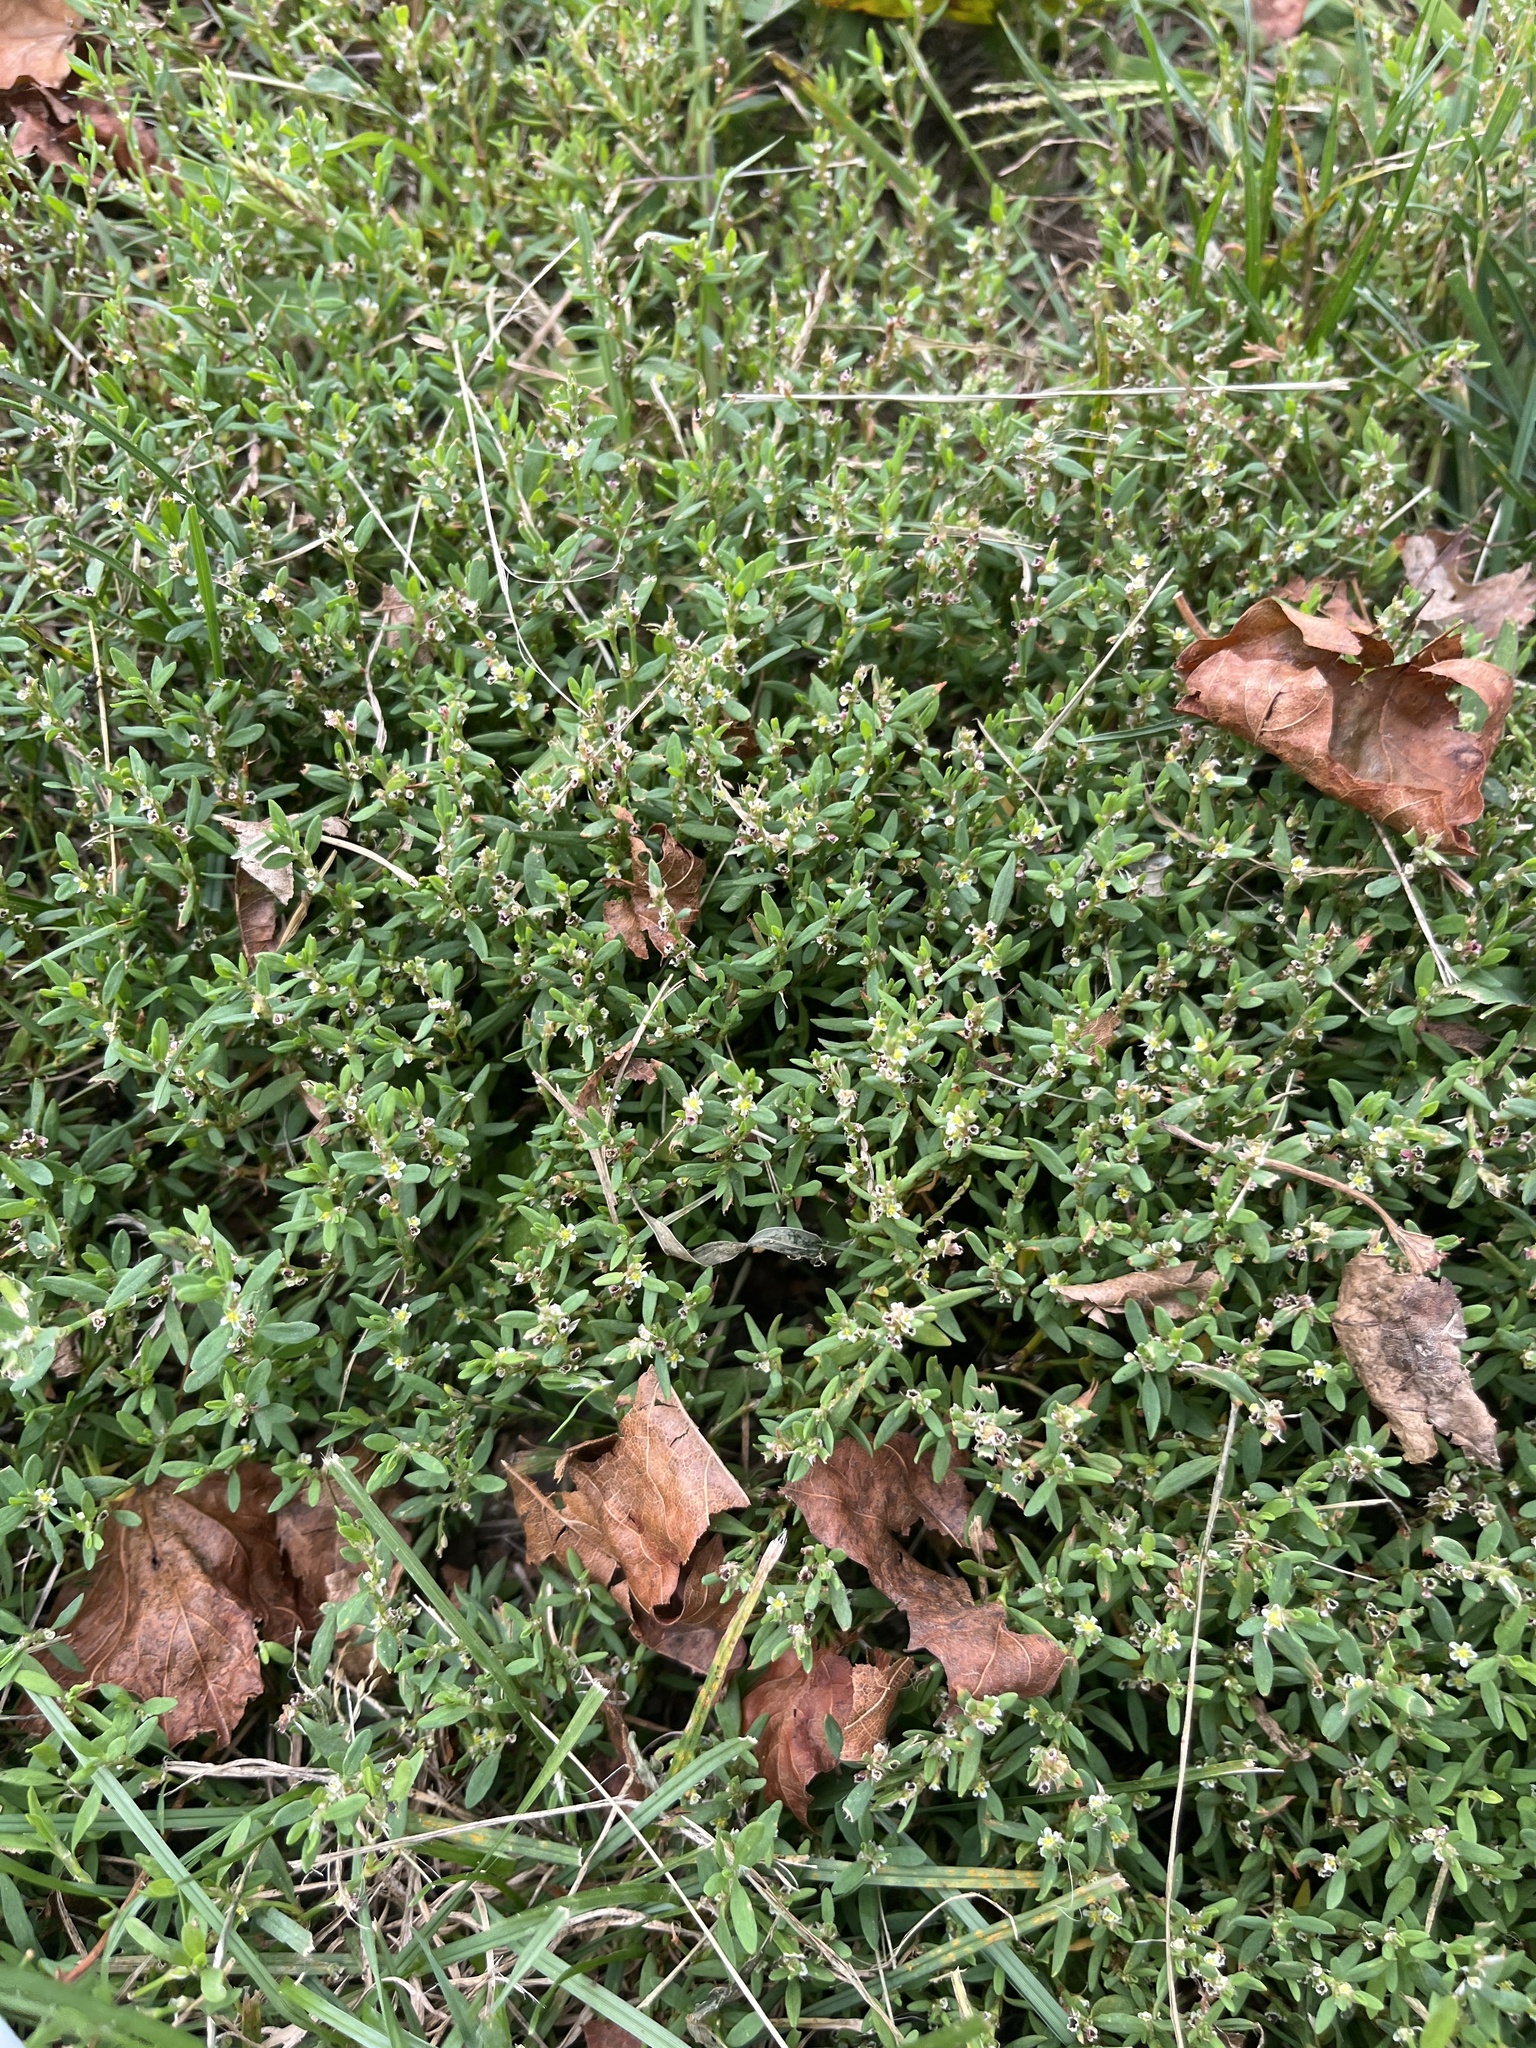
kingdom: Plantae
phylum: Tracheophyta
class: Magnoliopsida
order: Caryophyllales
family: Polygonaceae
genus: Polygonum
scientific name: Polygonum aviculare
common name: Prostrate knotweed
